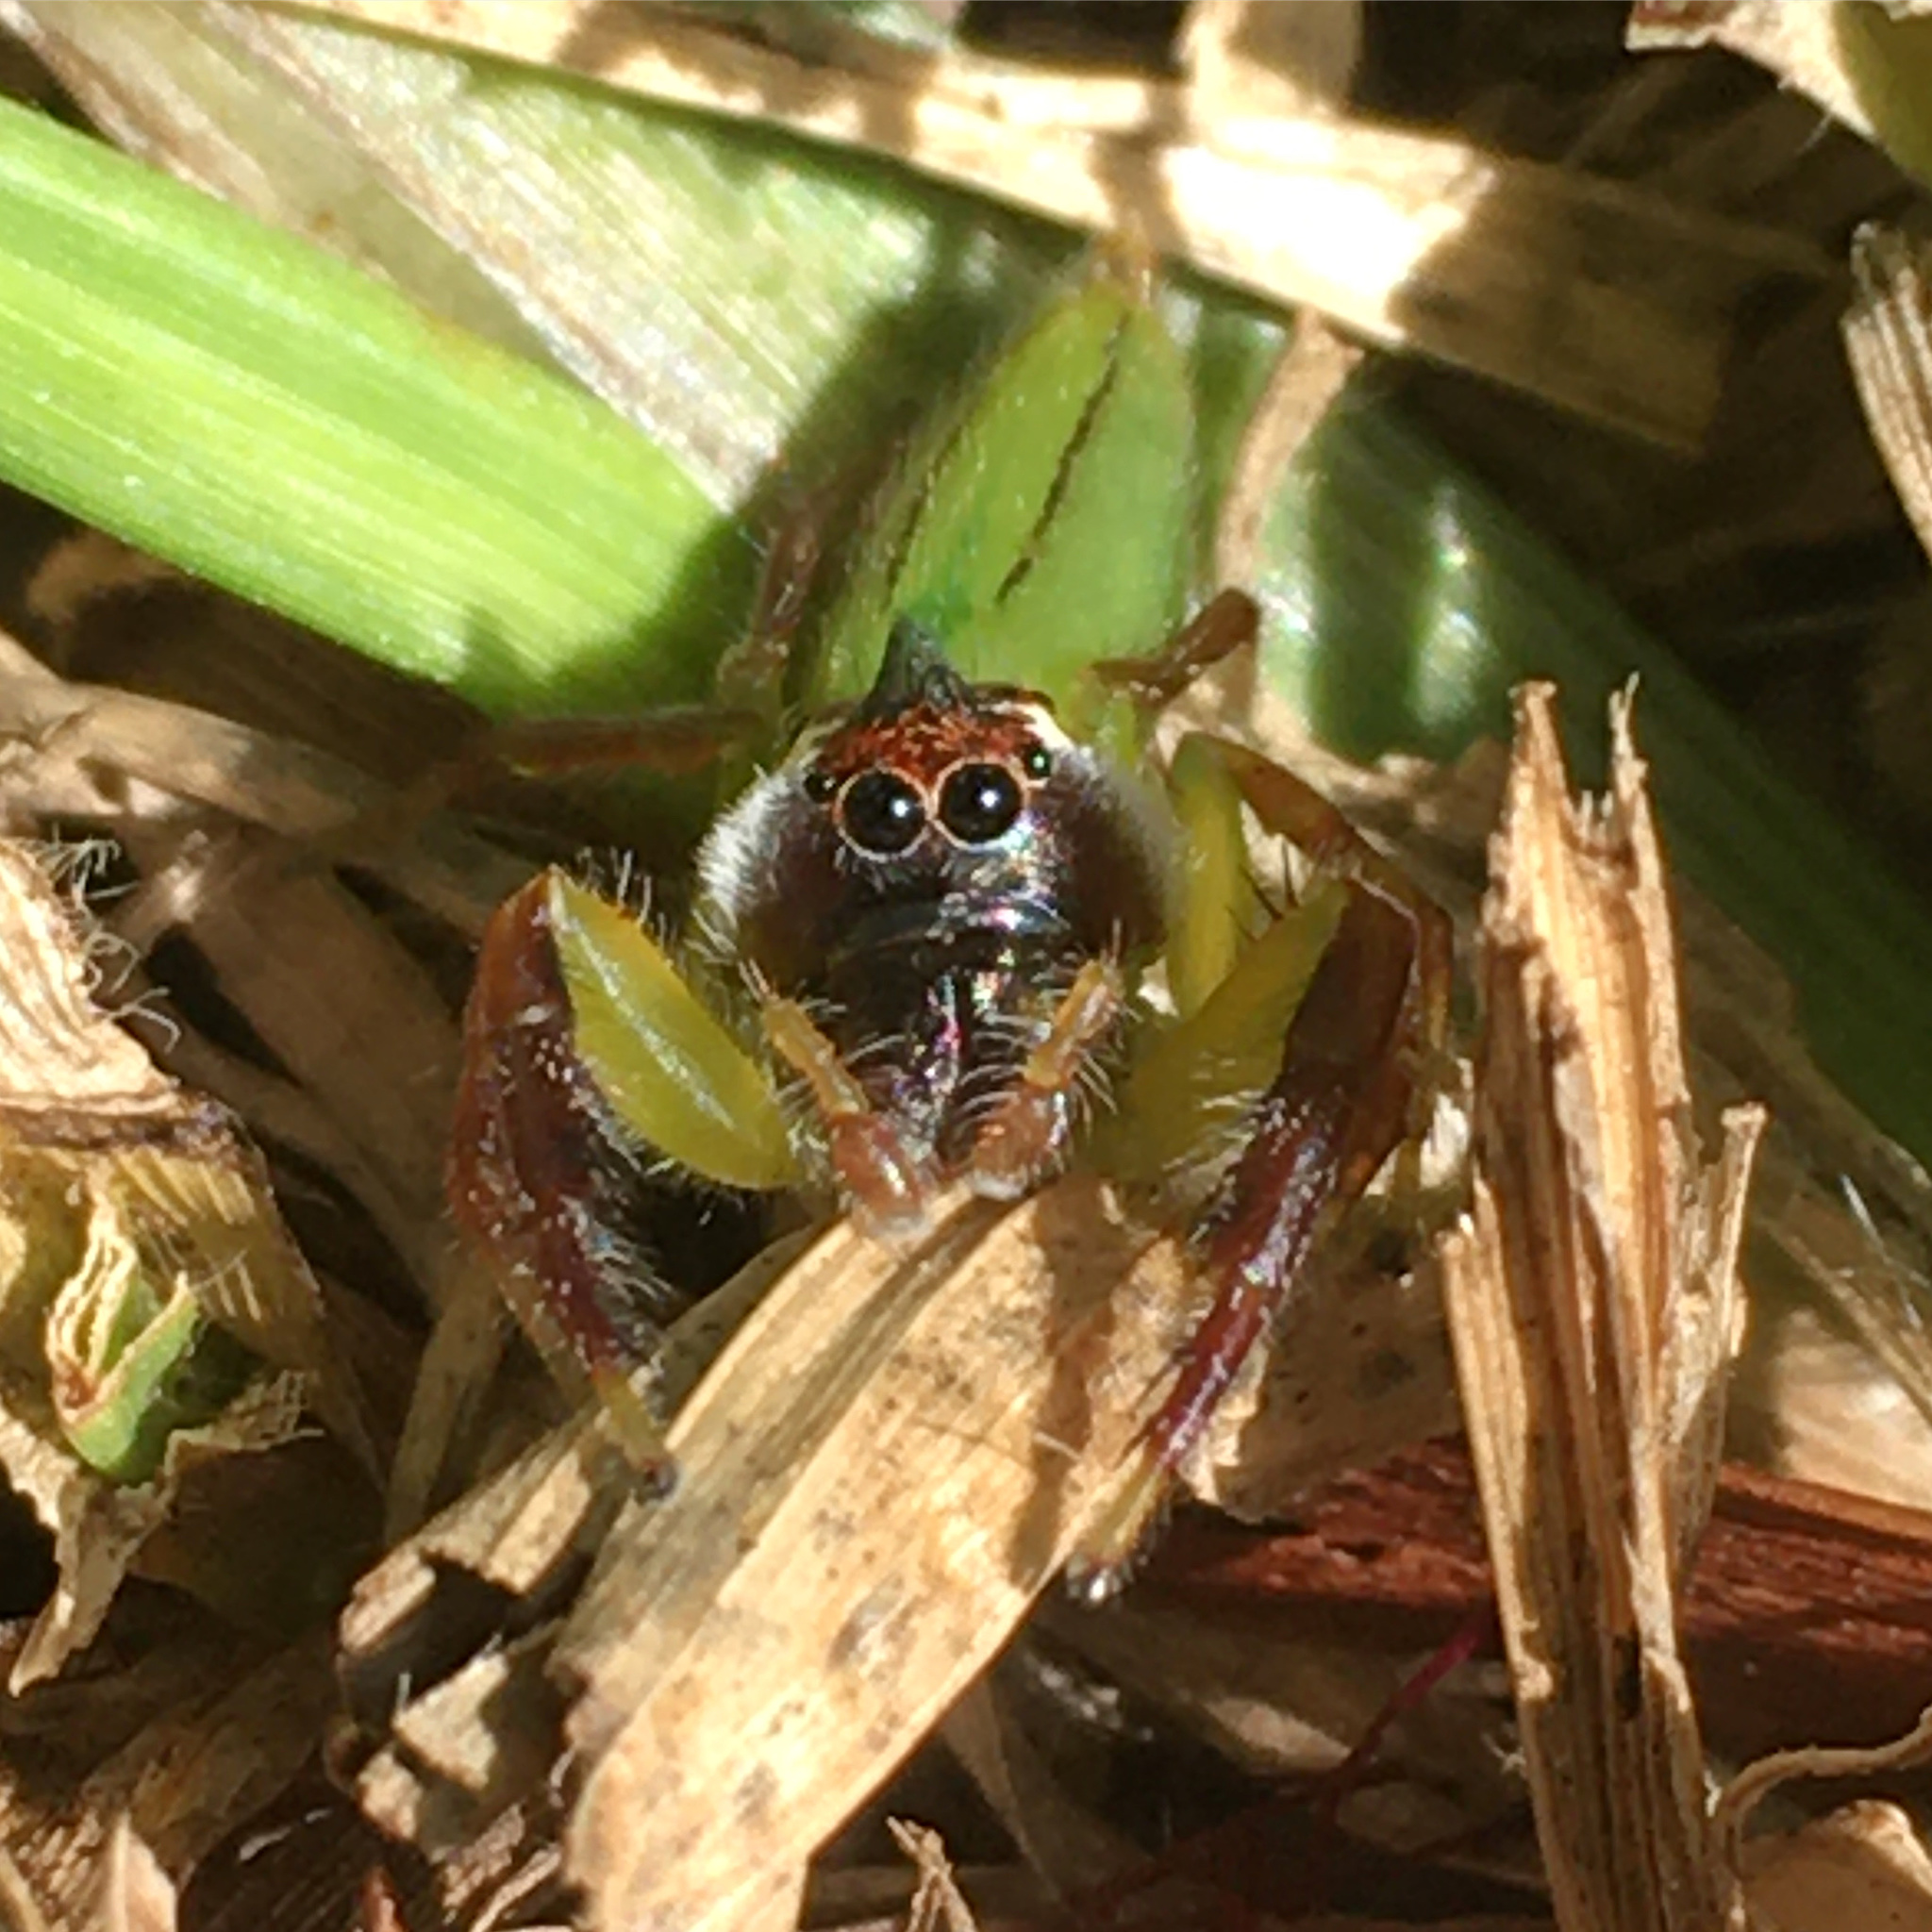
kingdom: Animalia
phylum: Arthropoda
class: Arachnida
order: Araneae
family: Salticidae
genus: Mopsus
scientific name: Mopsus mormon
